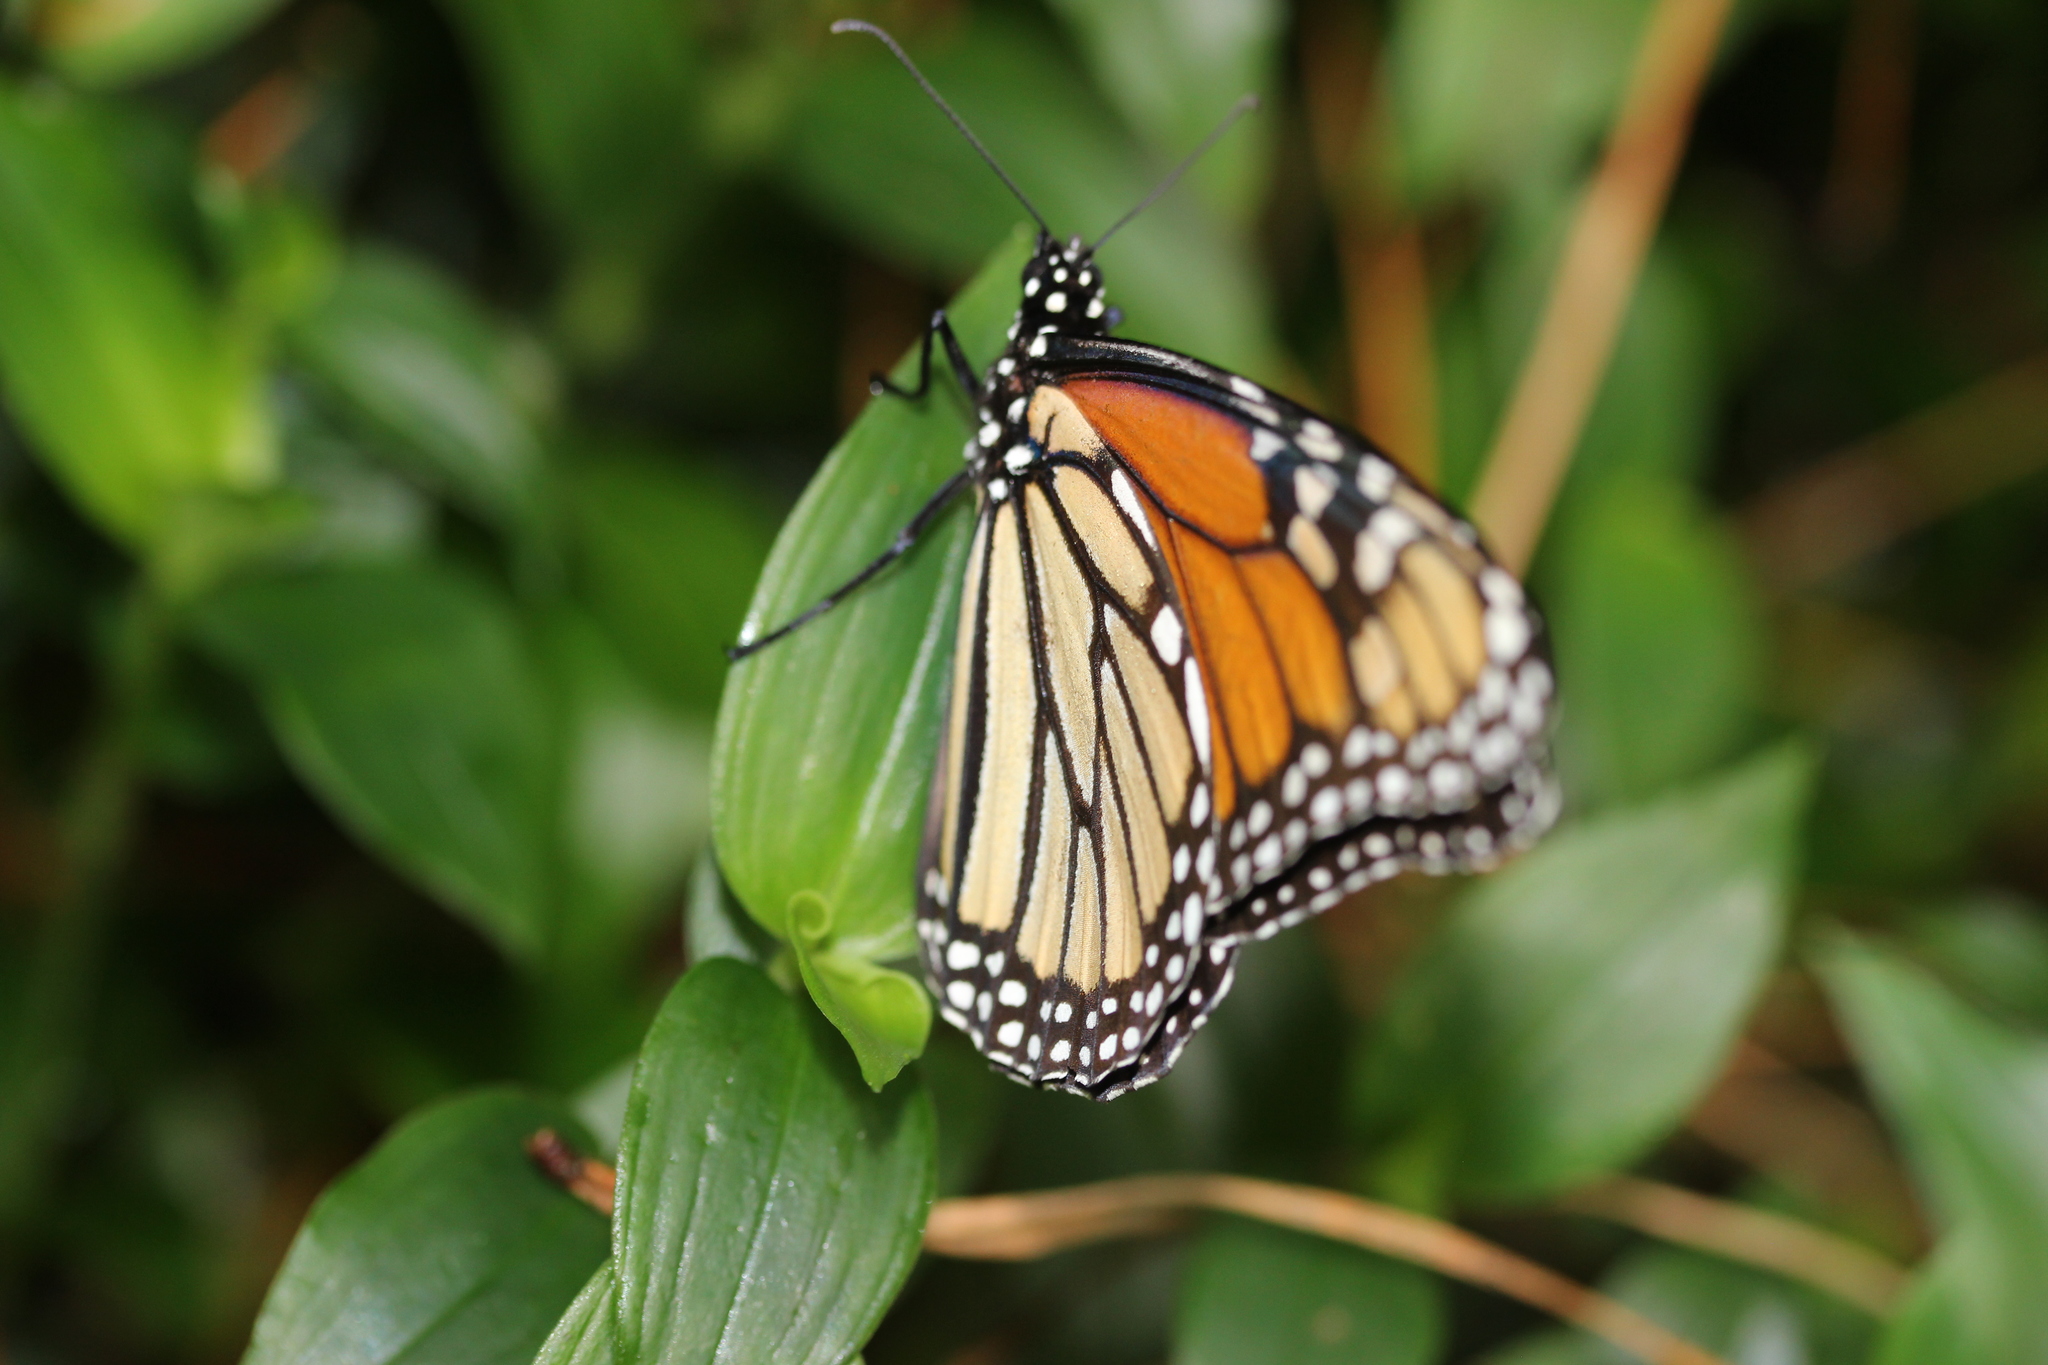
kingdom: Animalia
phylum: Arthropoda
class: Insecta
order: Lepidoptera
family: Nymphalidae
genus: Danaus
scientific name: Danaus plexippus
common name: Monarch
